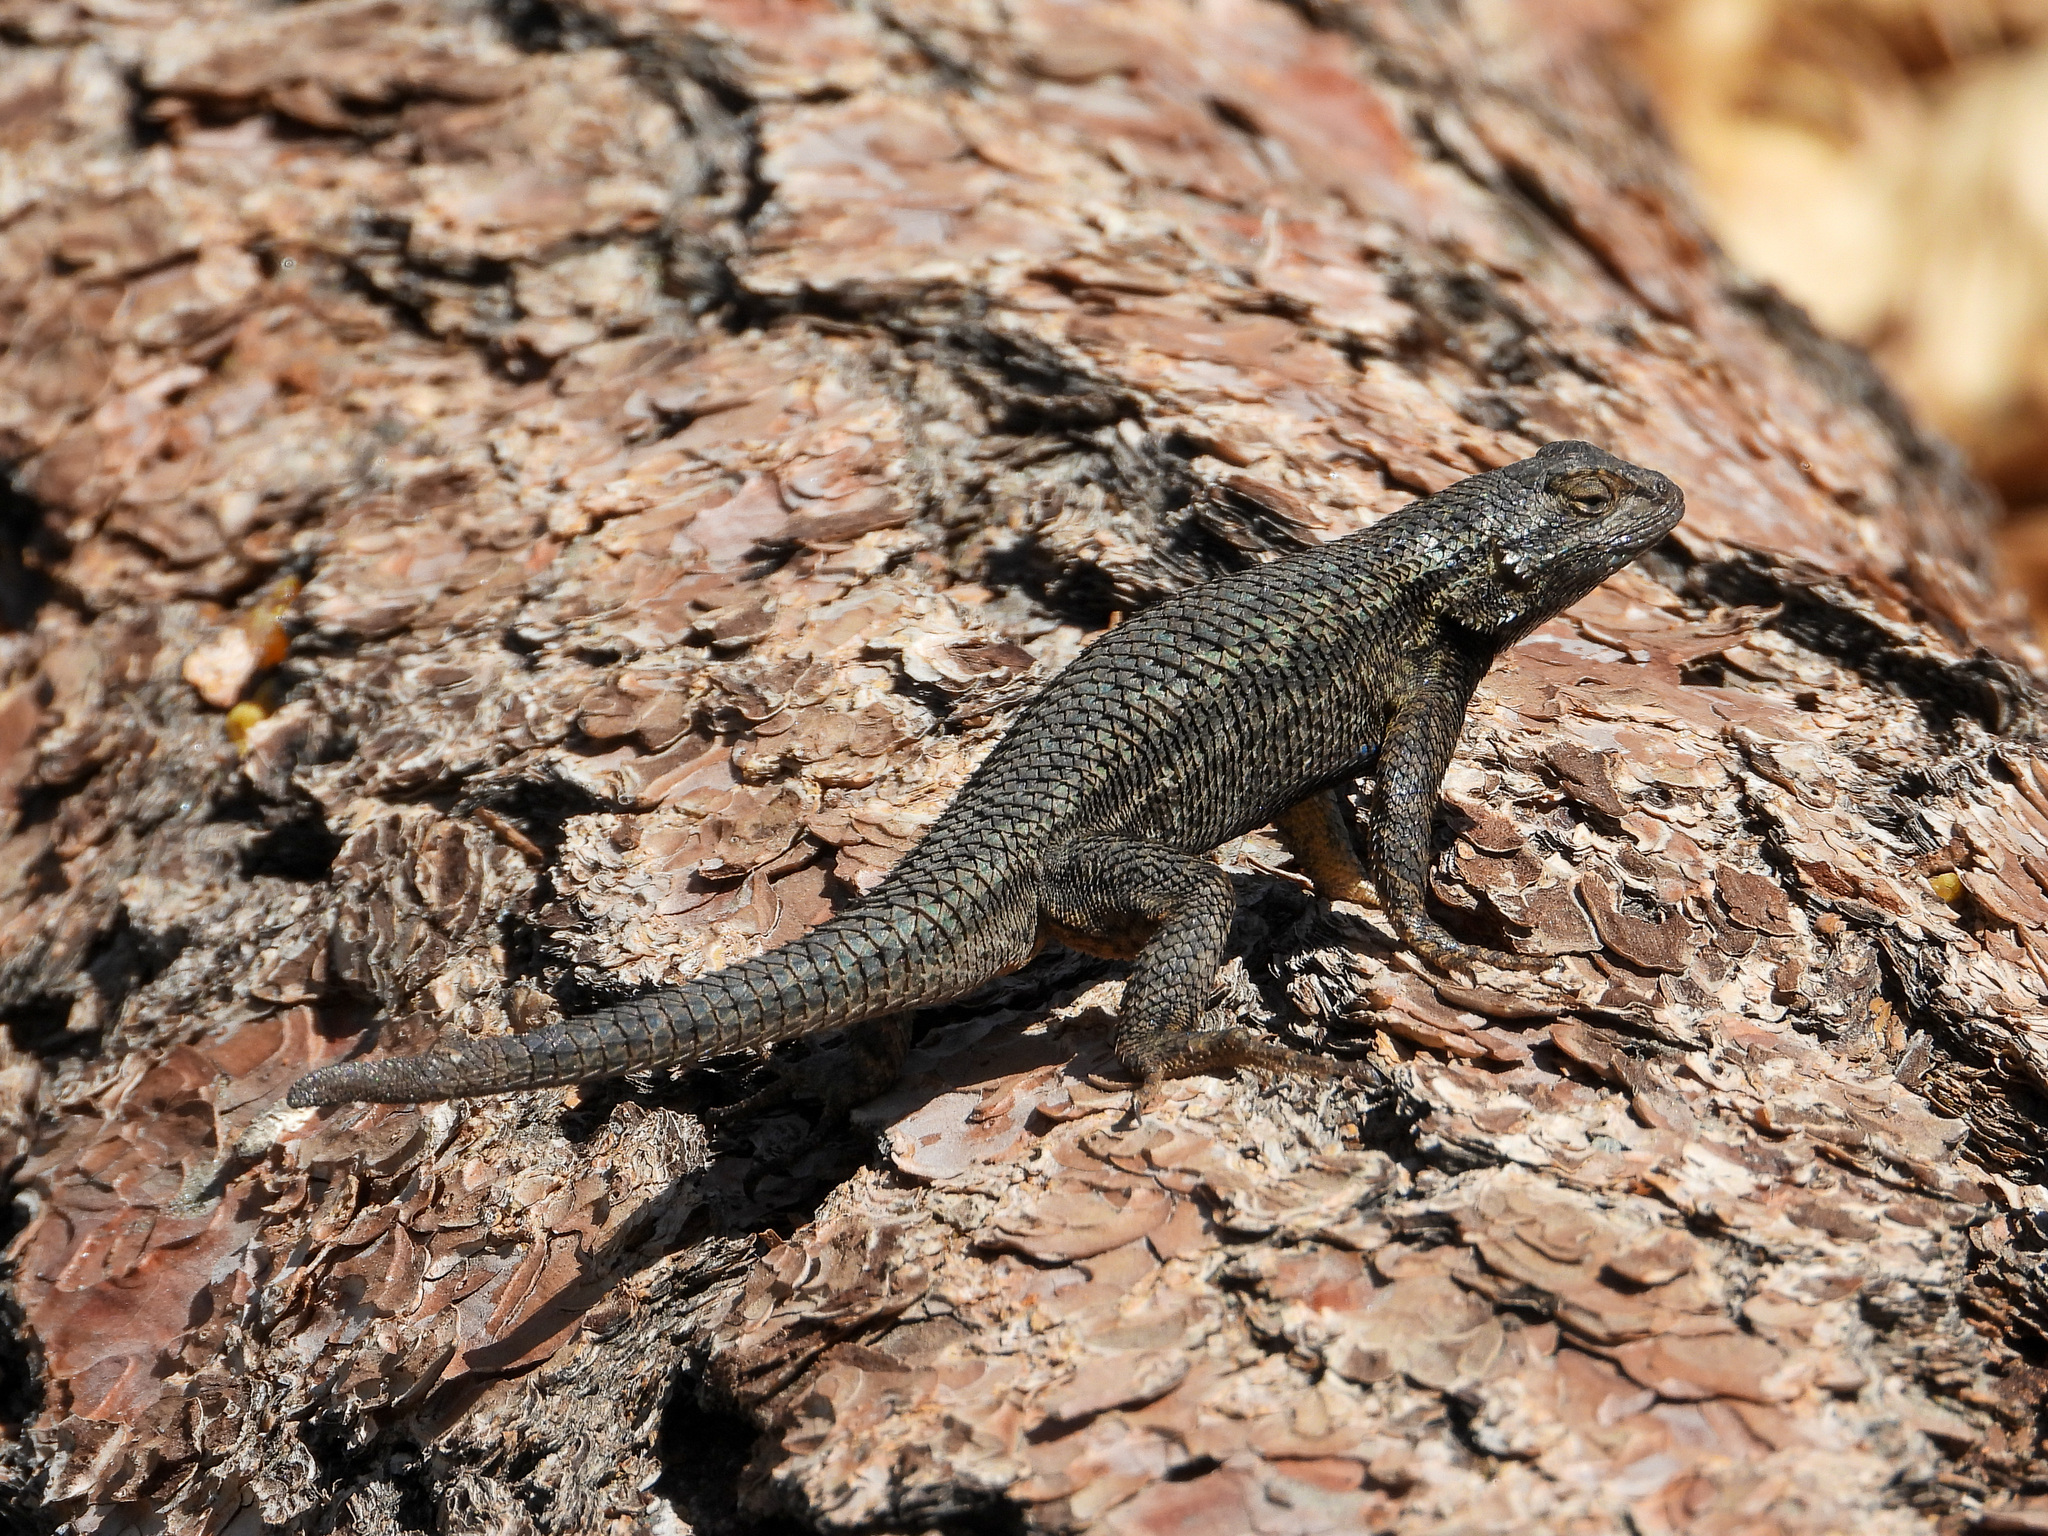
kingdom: Animalia
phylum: Chordata
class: Squamata
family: Phrynosomatidae
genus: Sceloporus
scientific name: Sceloporus occidentalis
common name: Western fence lizard
